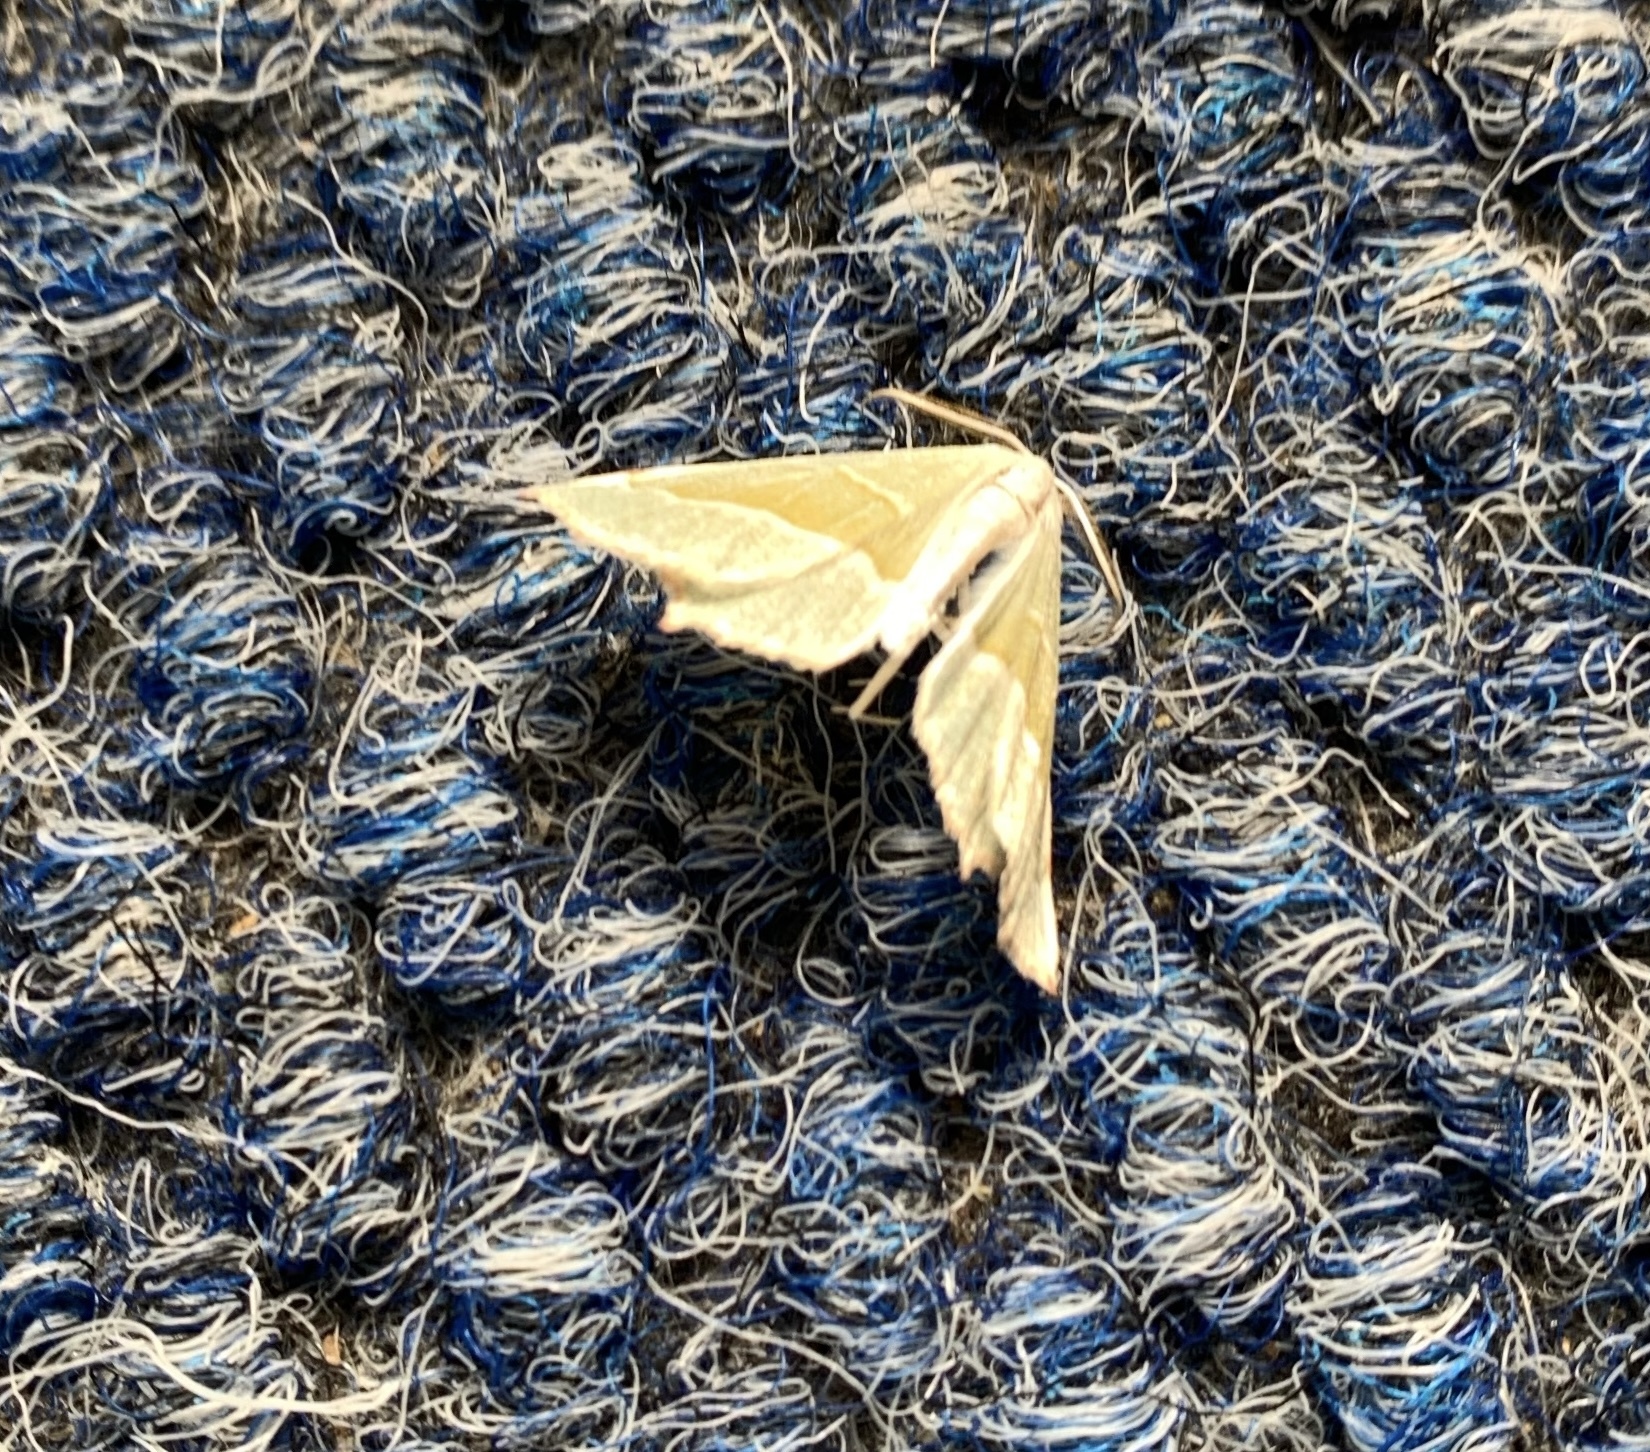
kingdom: Animalia
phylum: Arthropoda
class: Insecta
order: Lepidoptera
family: Geometridae
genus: Ennomos
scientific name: Ennomos erosaria
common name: September thorn
